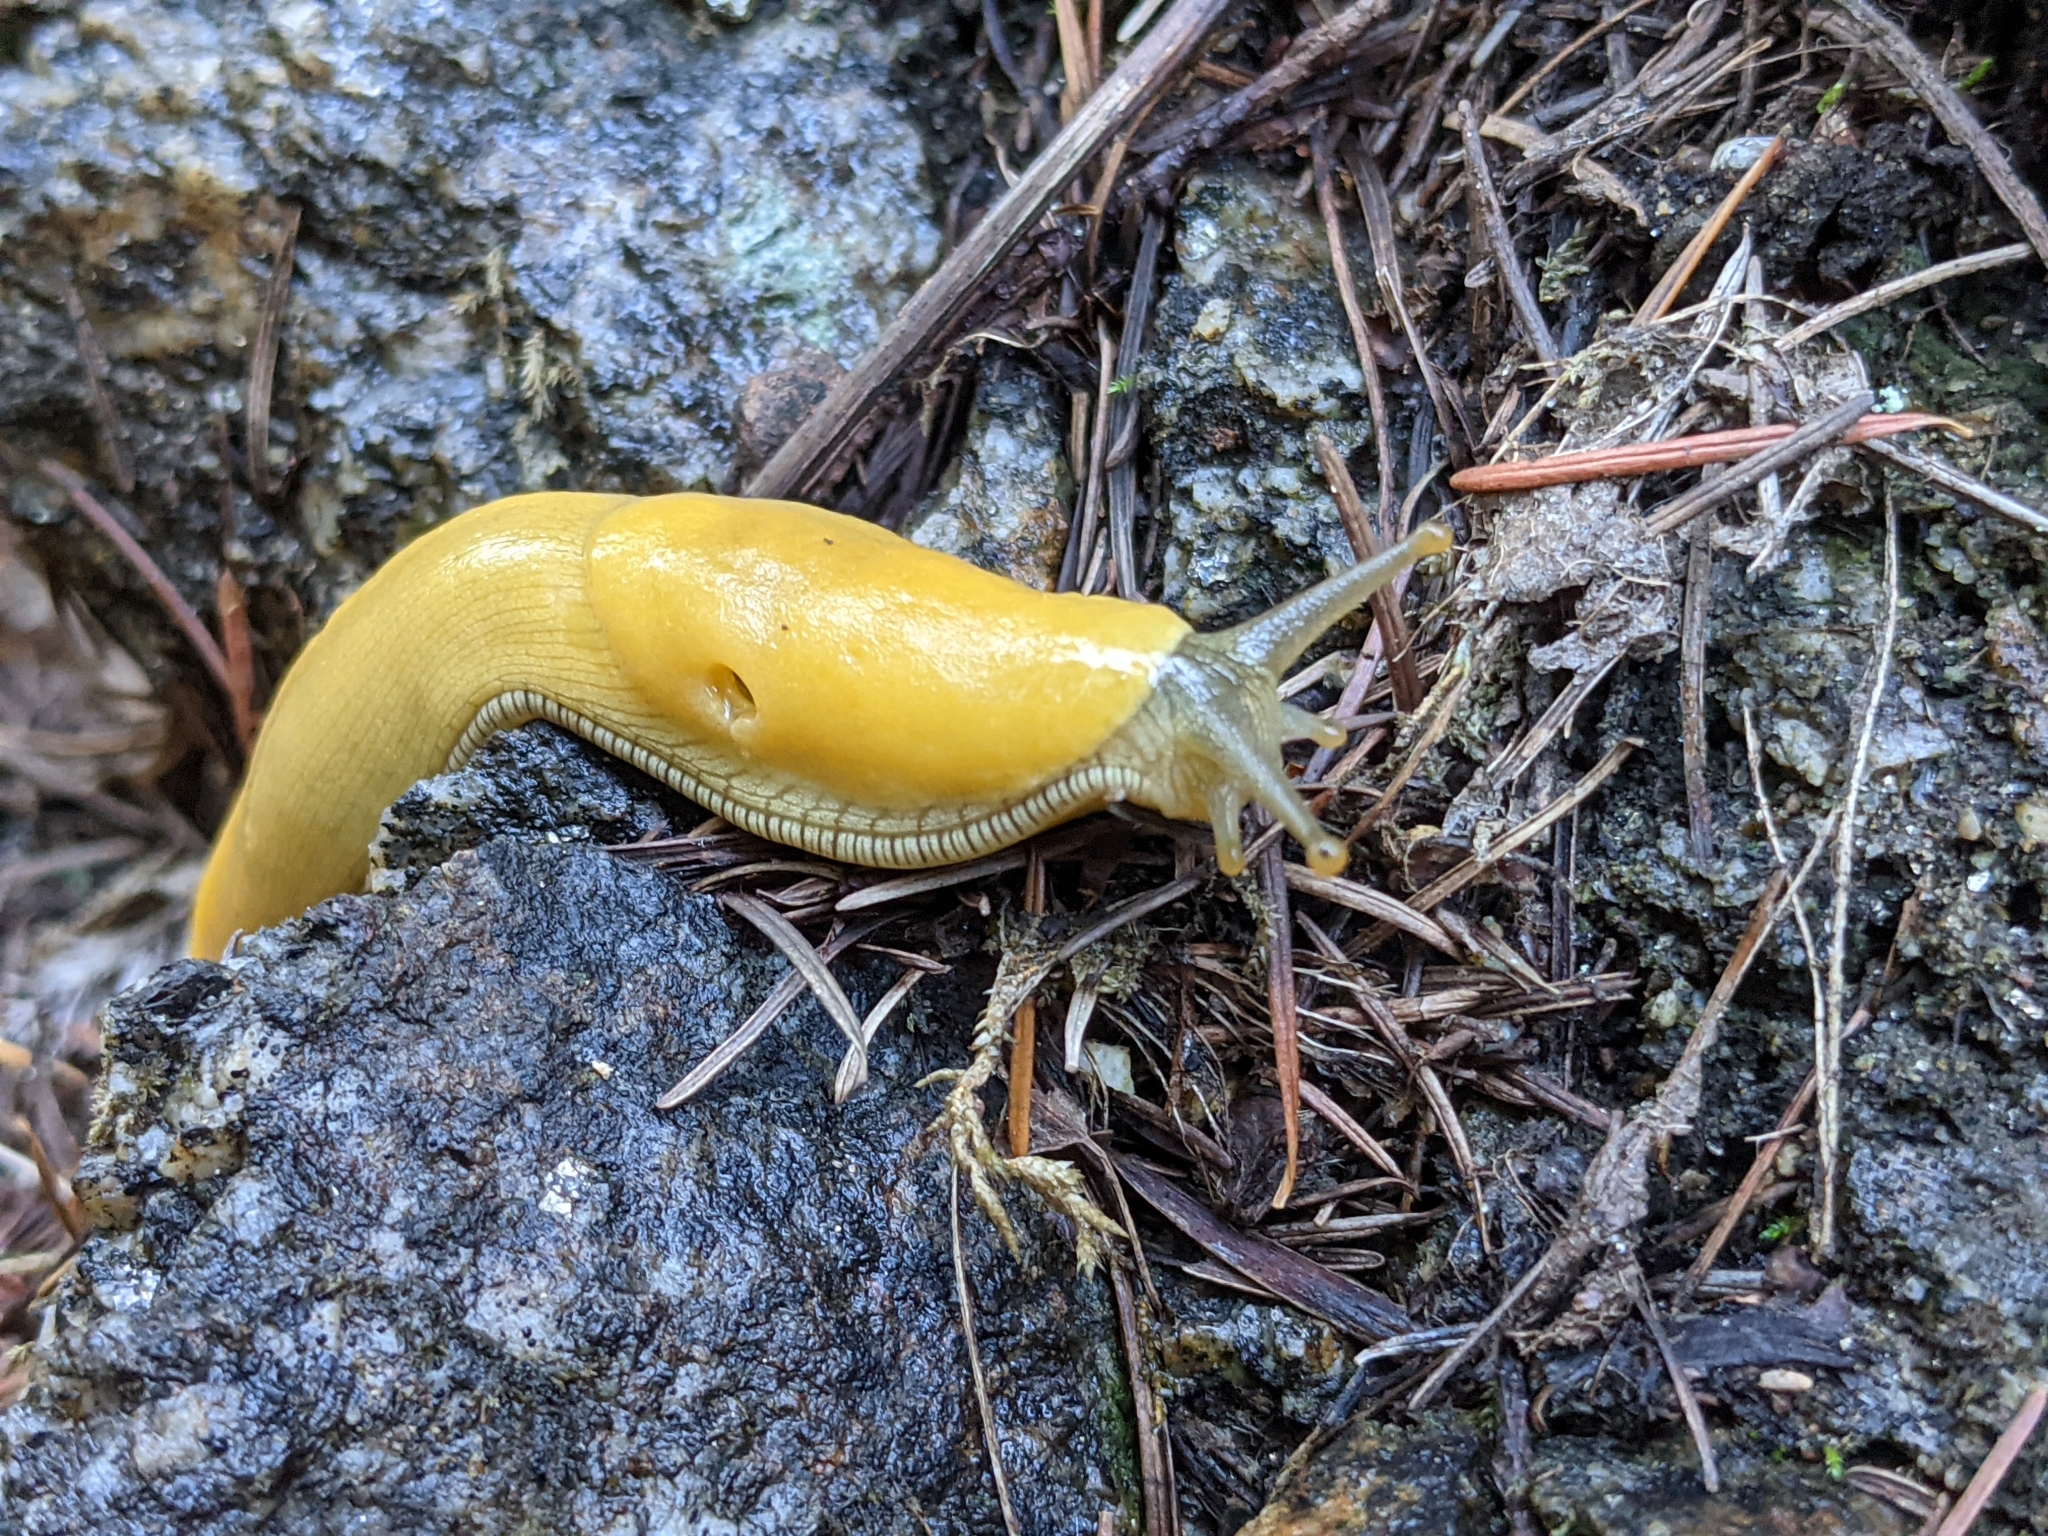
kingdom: Animalia
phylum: Mollusca
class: Gastropoda
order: Stylommatophora
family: Ariolimacidae
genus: Ariolimax
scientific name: Ariolimax dolichophallus
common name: Slender banana slug
